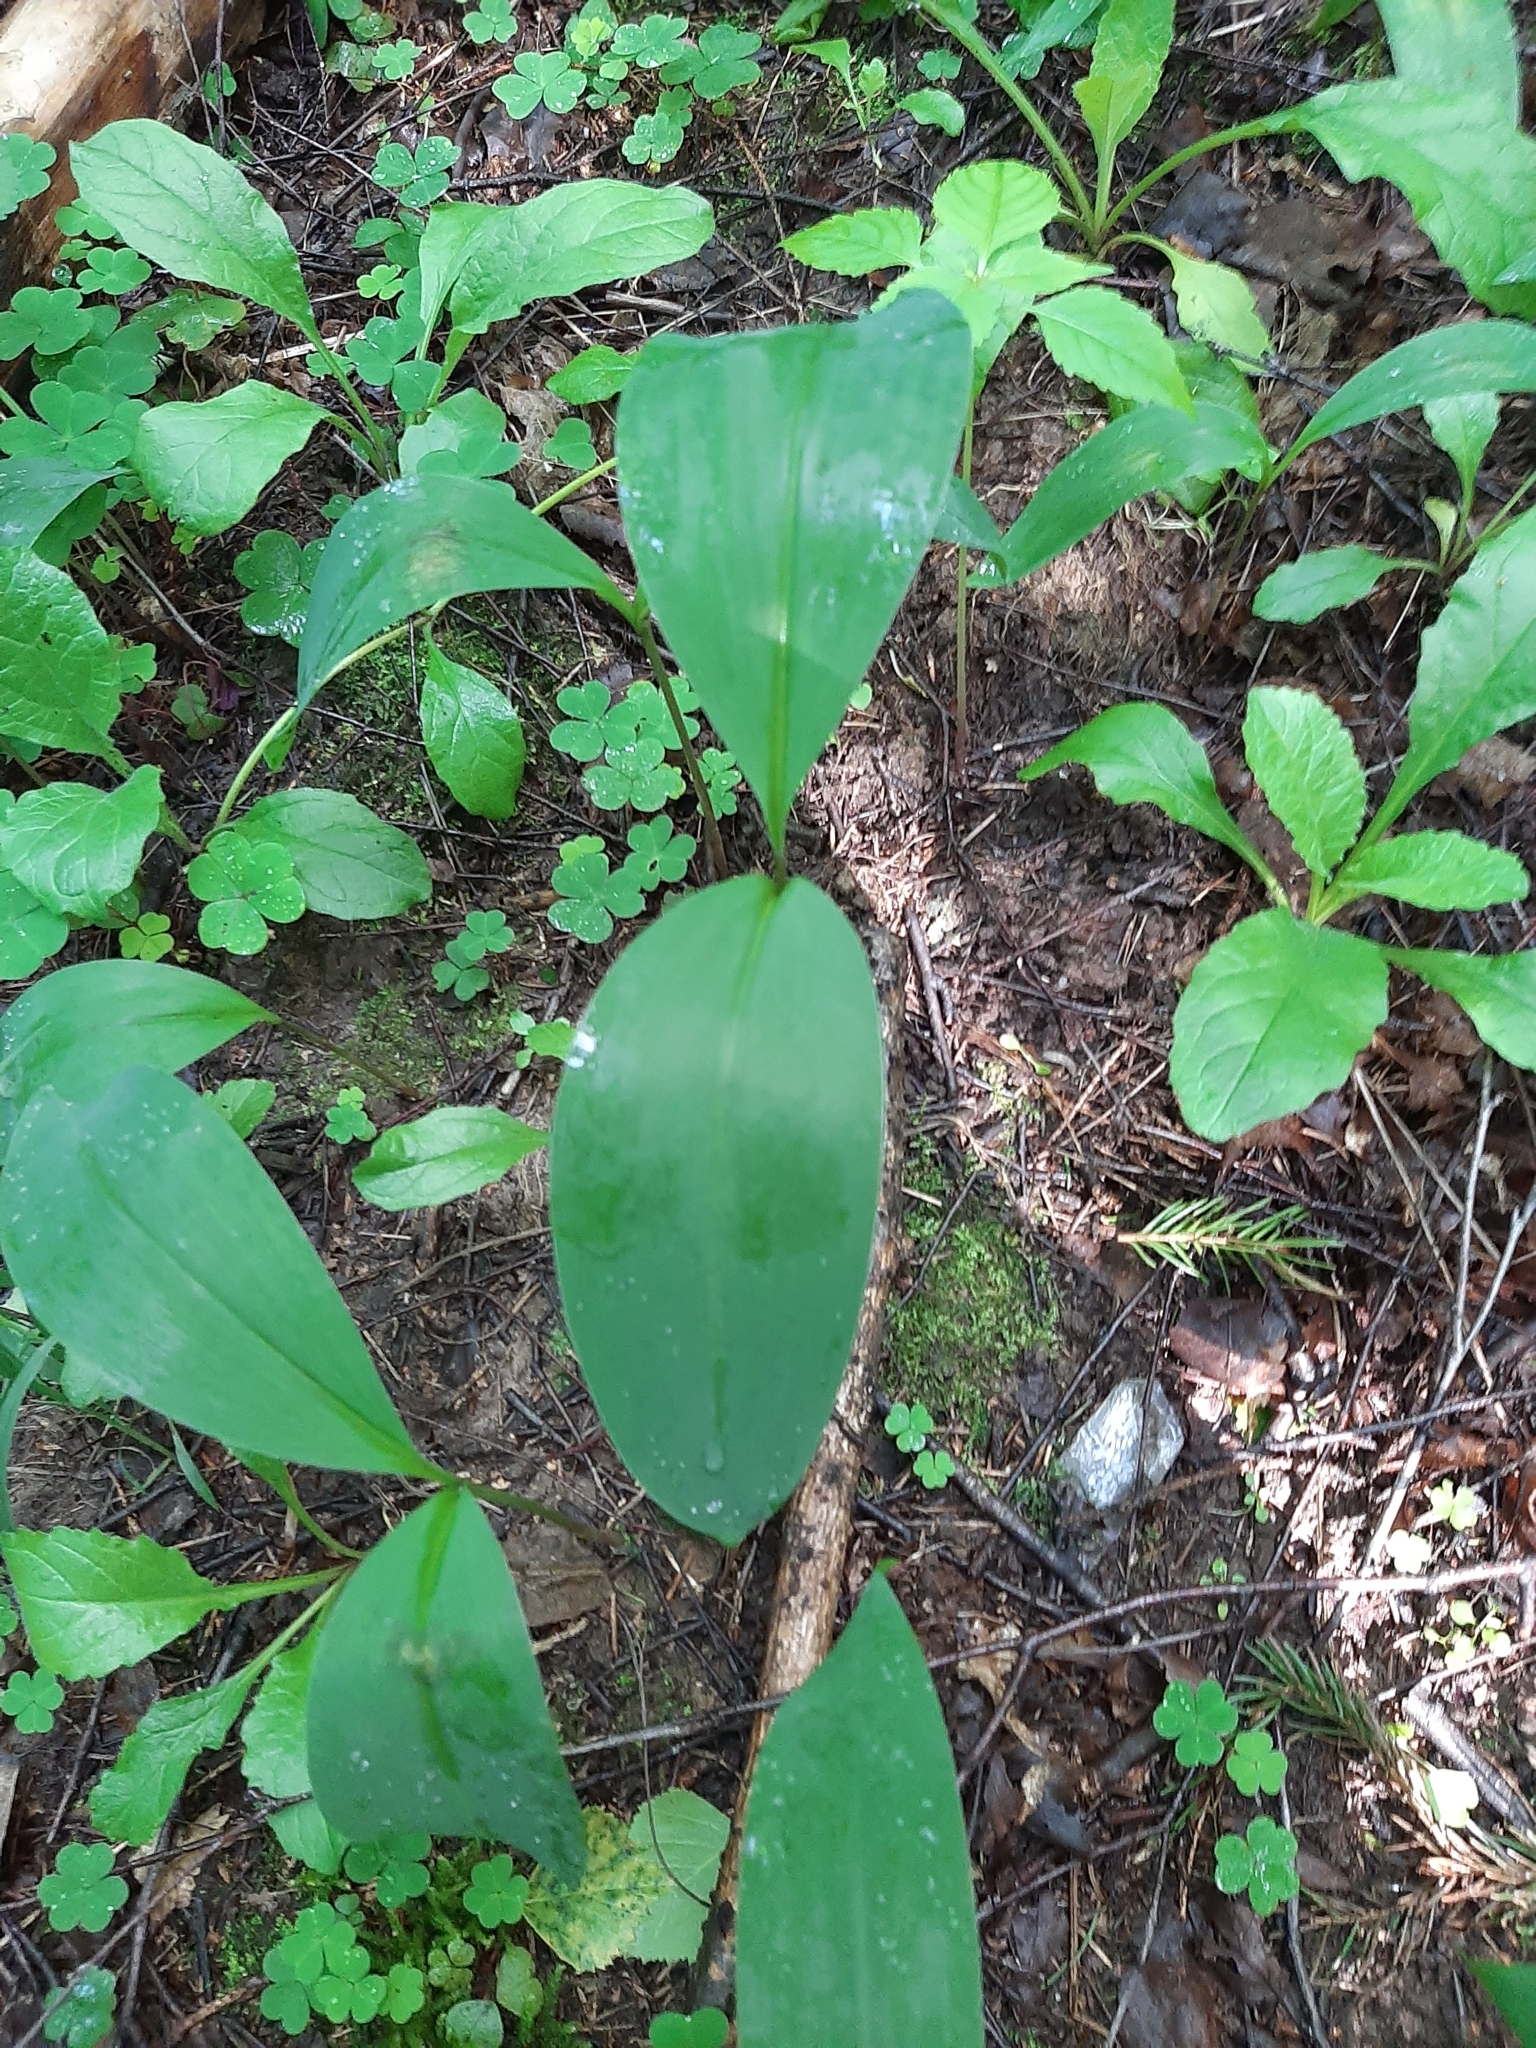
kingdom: Plantae
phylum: Tracheophyta
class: Liliopsida
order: Asparagales
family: Asparagaceae
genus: Convallaria
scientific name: Convallaria majalis
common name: Lily-of-the-valley
